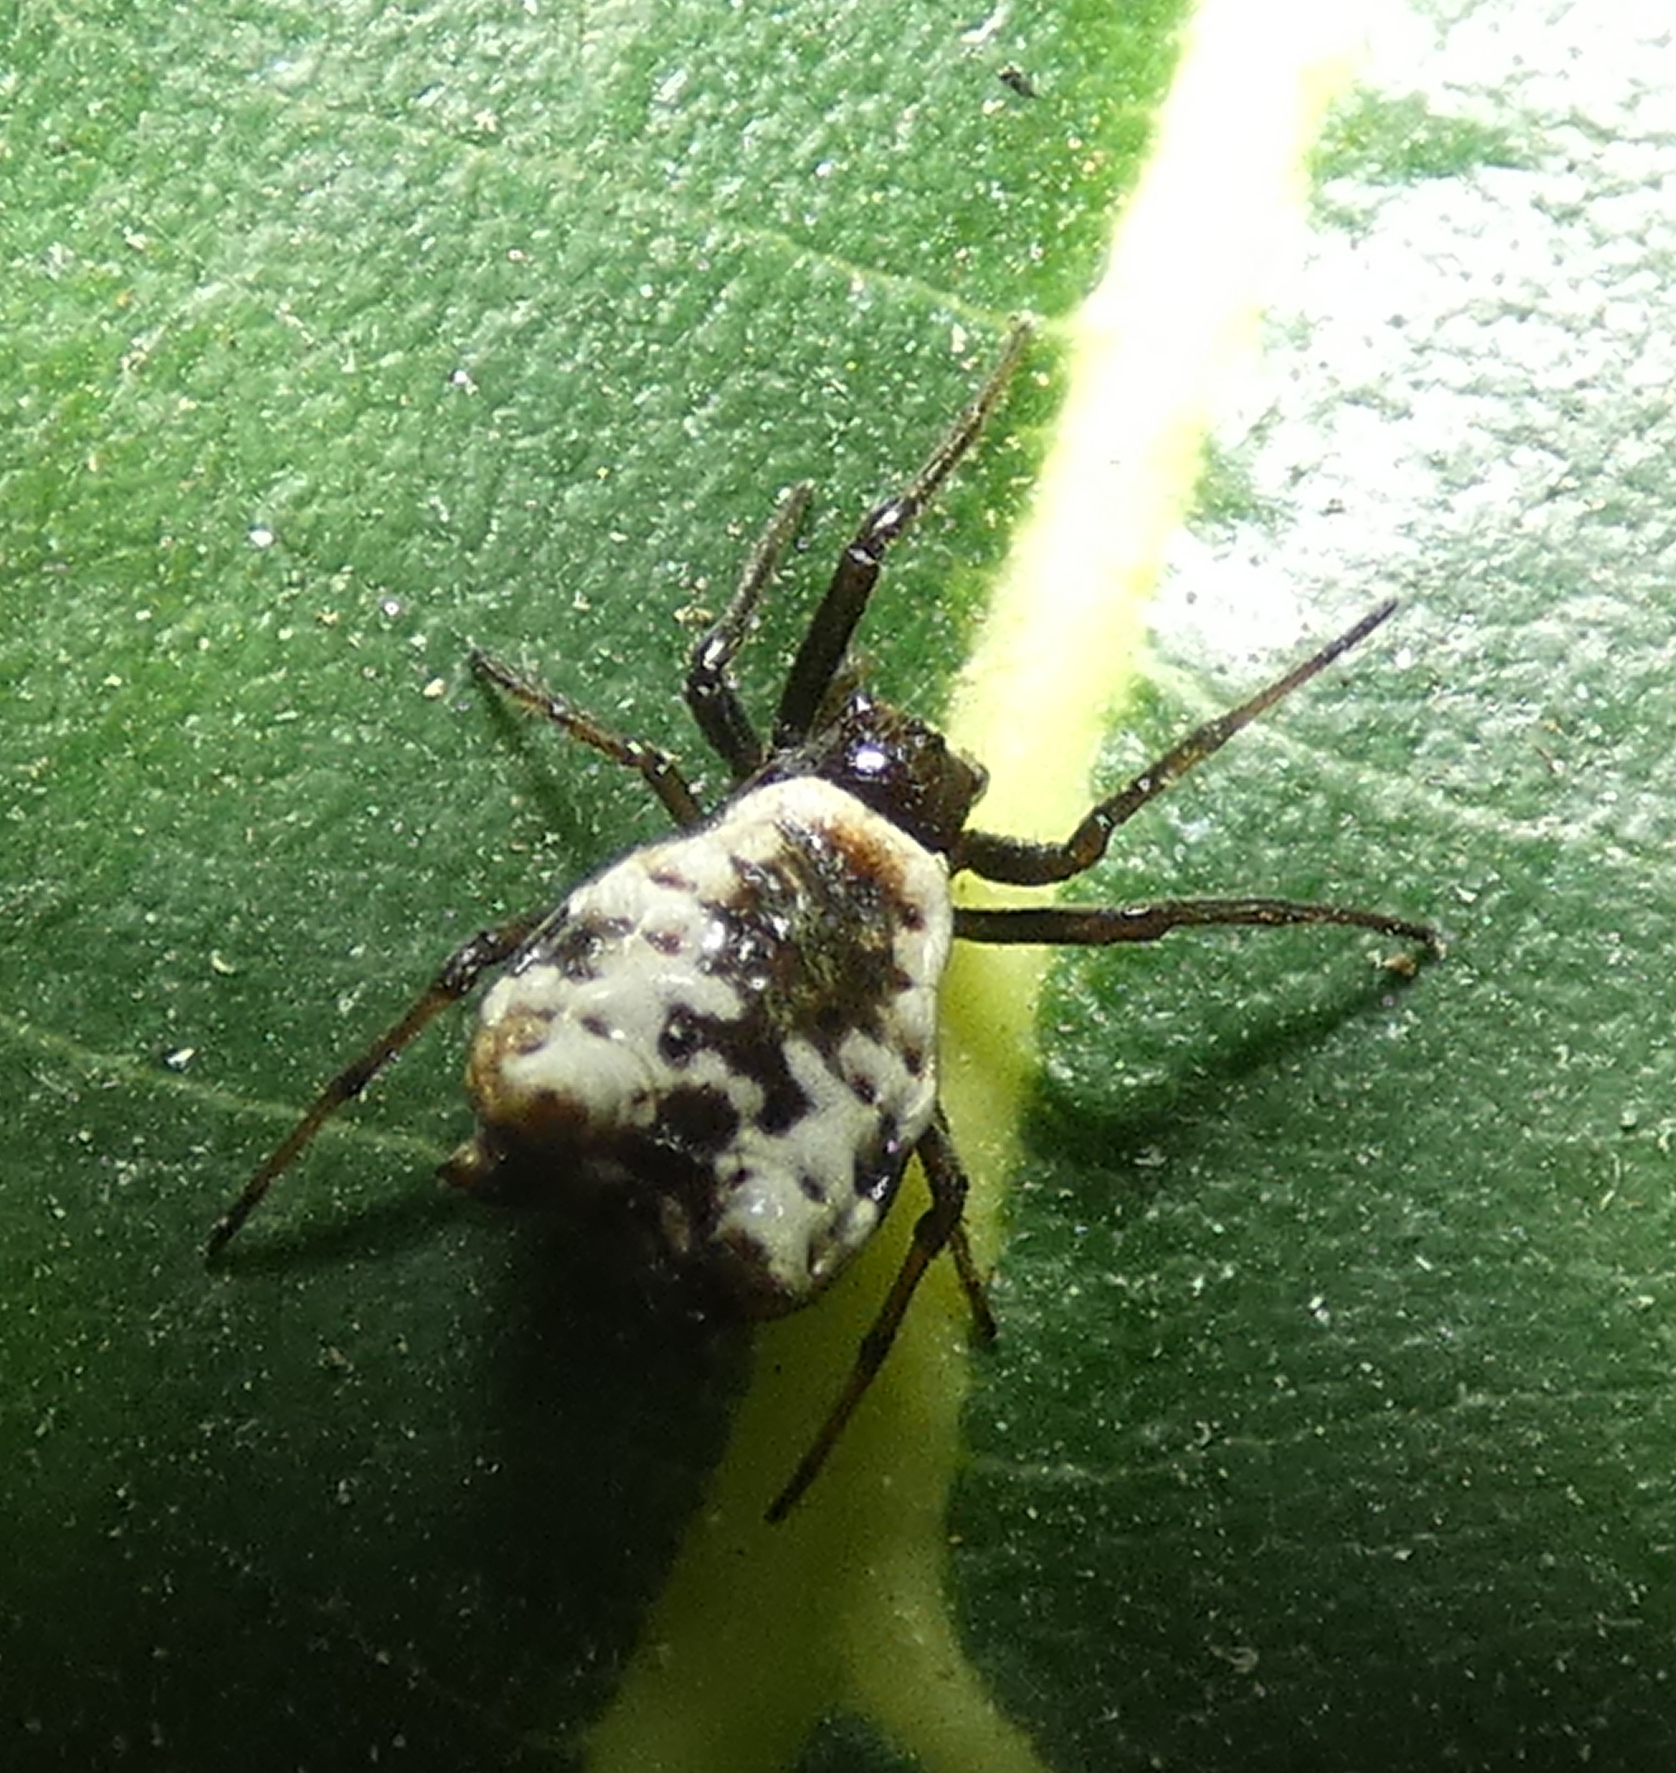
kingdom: Animalia
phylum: Arthropoda
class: Arachnida
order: Araneae
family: Araneidae
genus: Micrathena
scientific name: Micrathena patruelis
